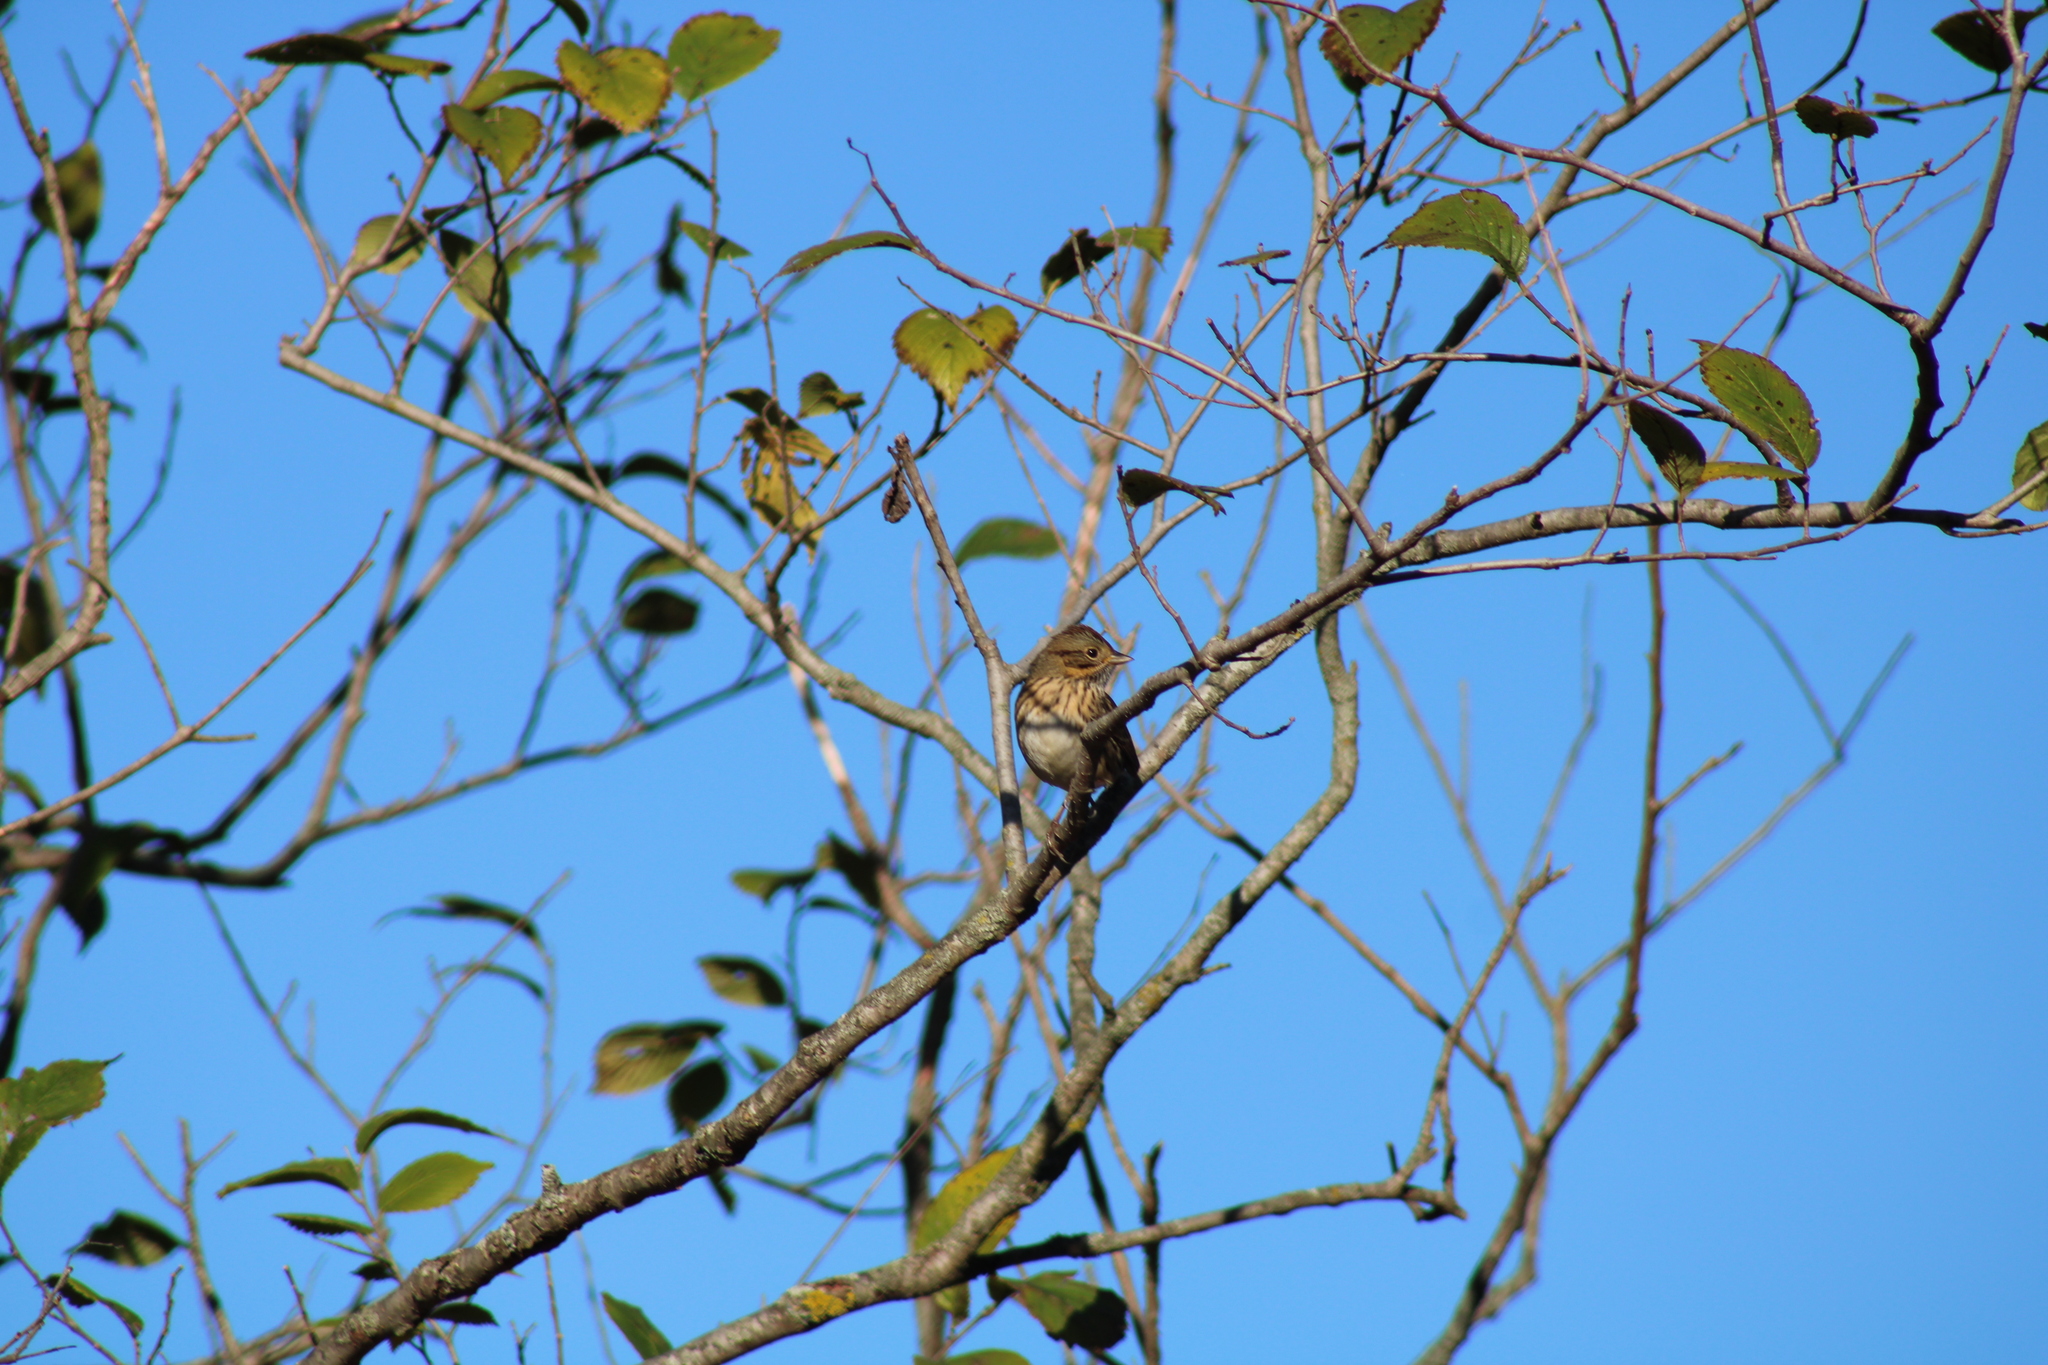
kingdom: Animalia
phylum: Chordata
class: Aves
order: Passeriformes
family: Passerellidae
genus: Melospiza
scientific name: Melospiza lincolnii
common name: Lincoln's sparrow
